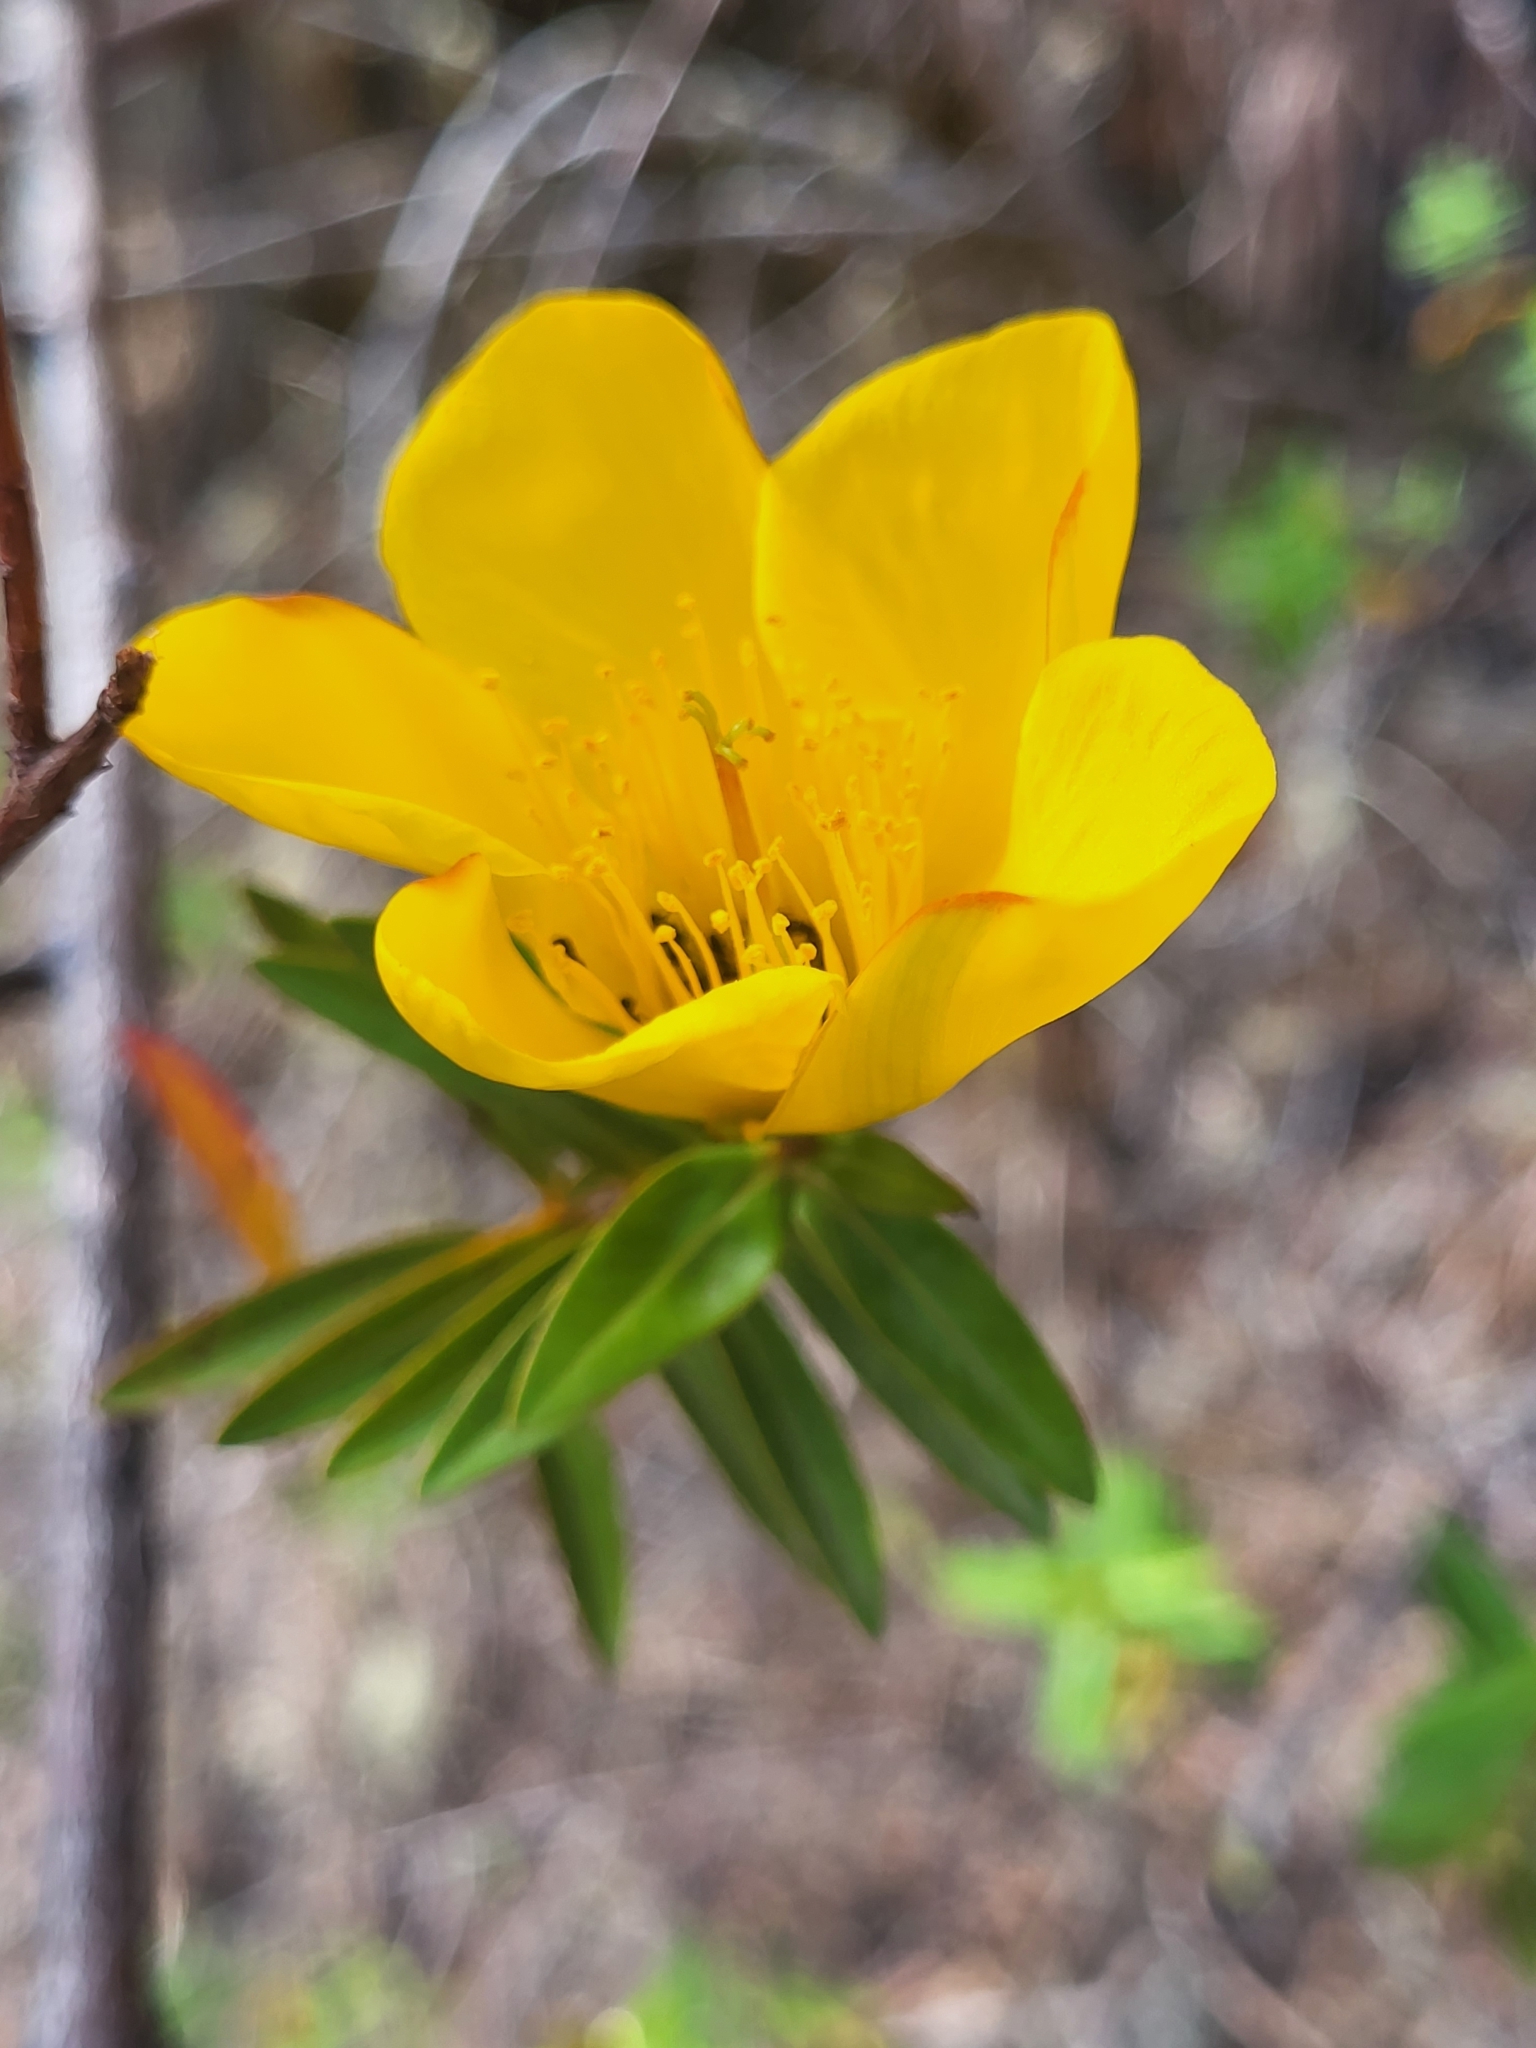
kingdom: Plantae
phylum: Tracheophyta
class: Magnoliopsida
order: Malpighiales
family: Hypericaceae
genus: Hypericum
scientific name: Hypericum lanceolatum
